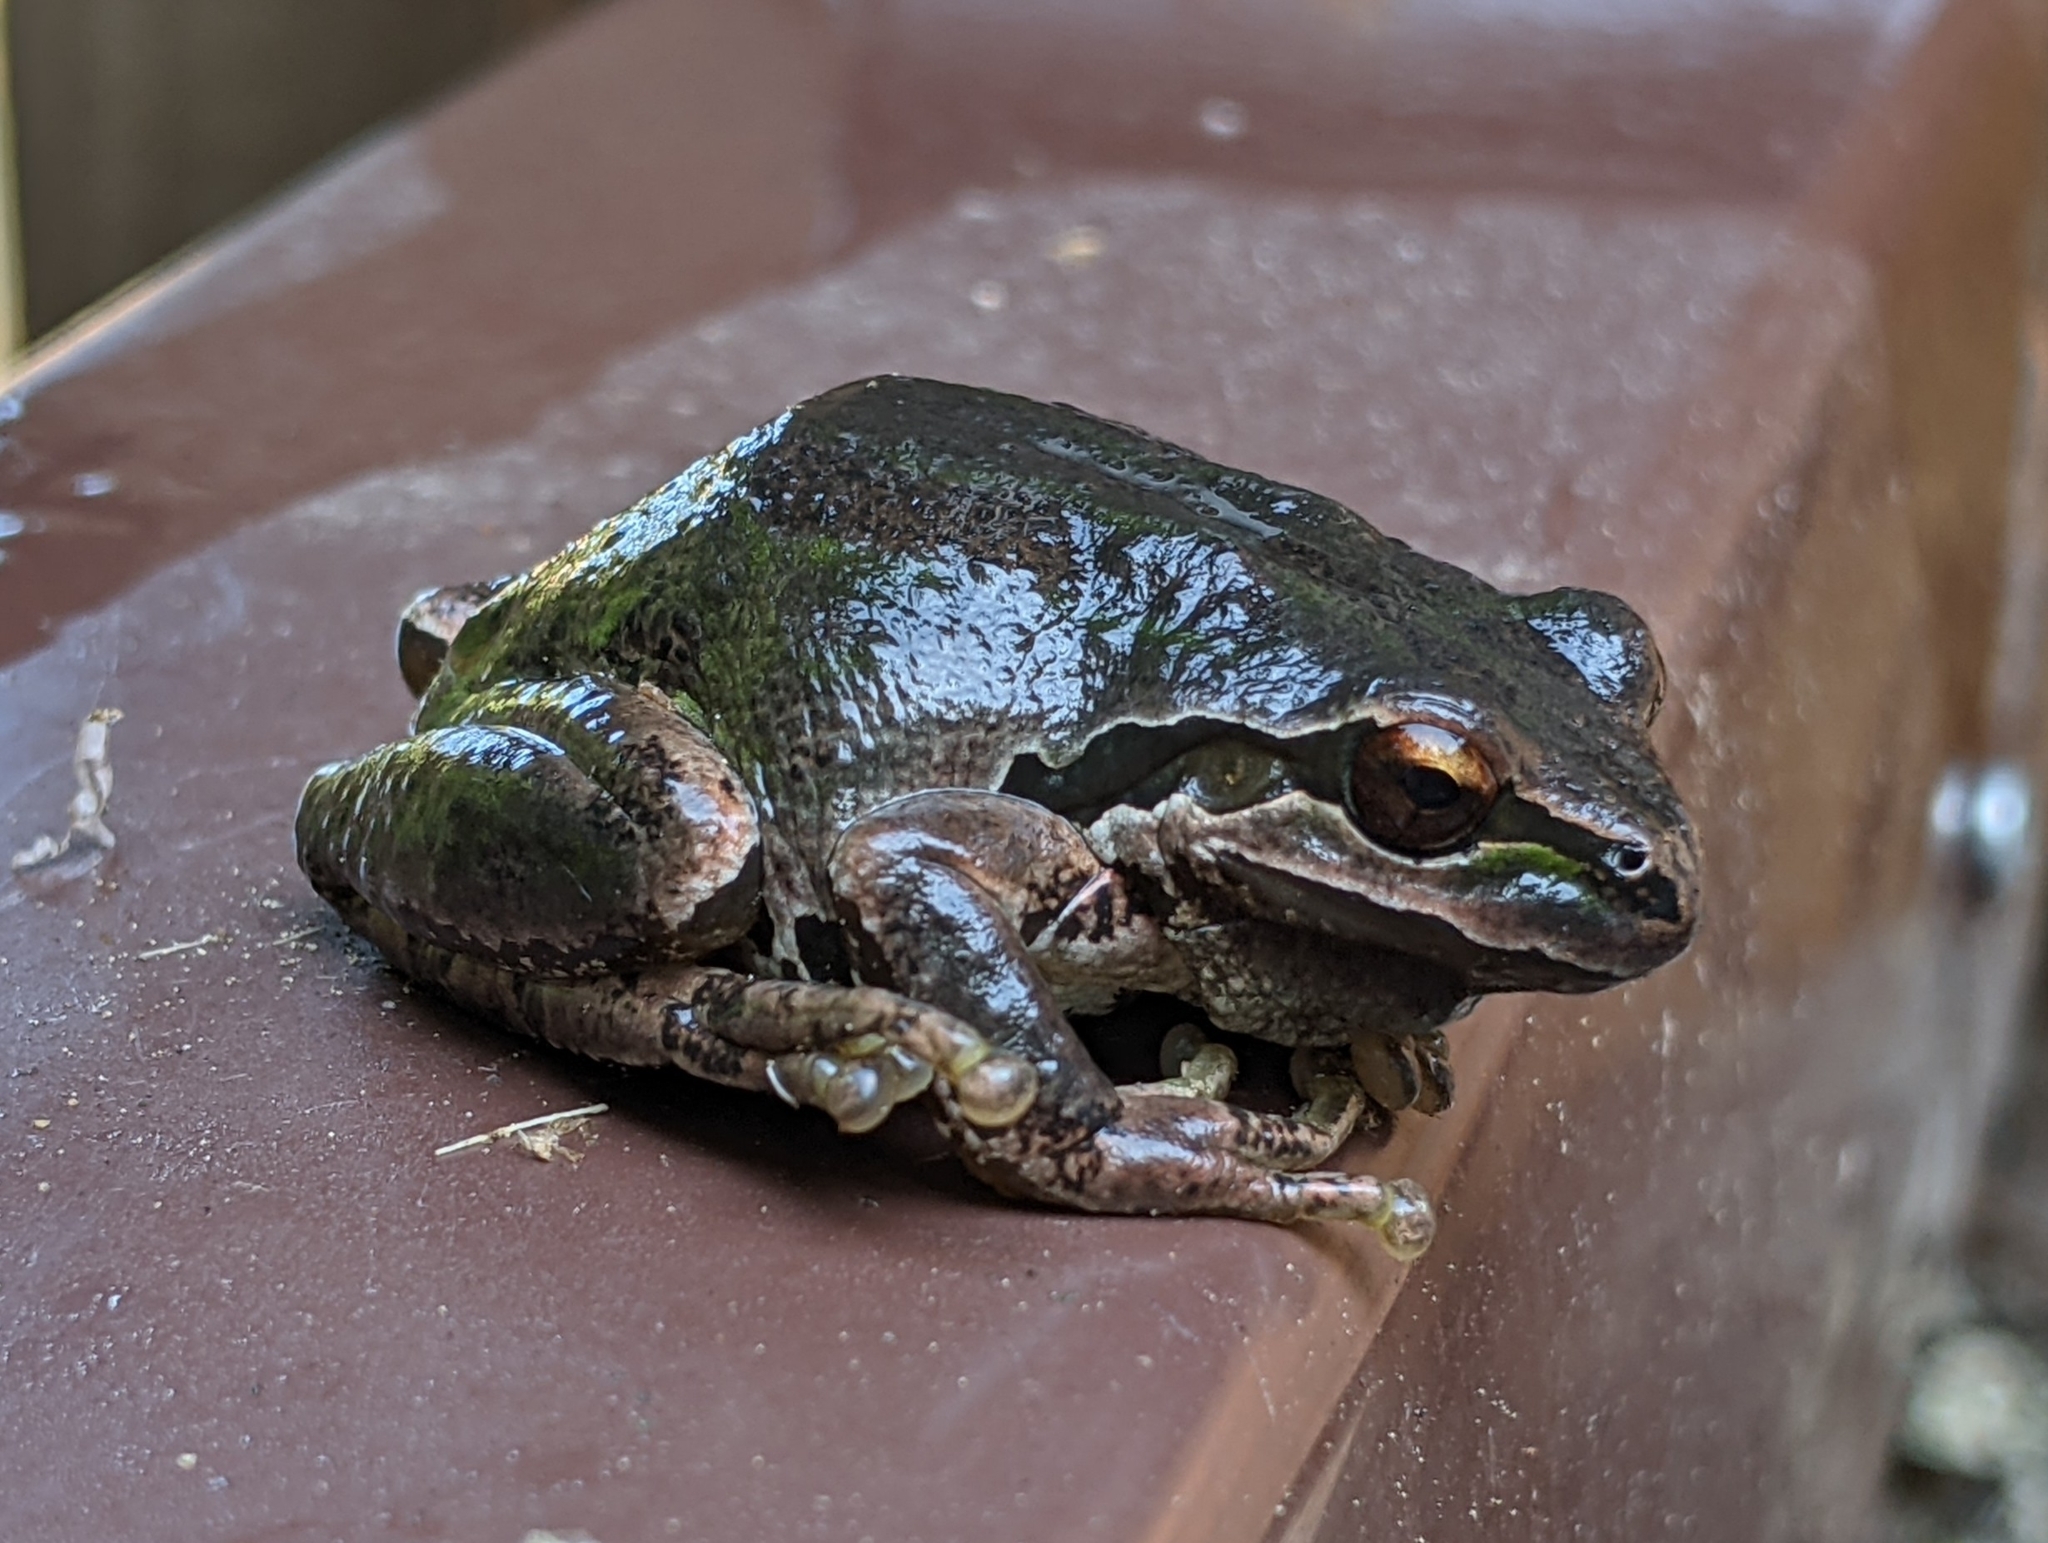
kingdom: Animalia
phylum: Chordata
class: Amphibia
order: Anura
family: Hylidae
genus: Pseudacris
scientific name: Pseudacris regilla
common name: Pacific chorus frog
